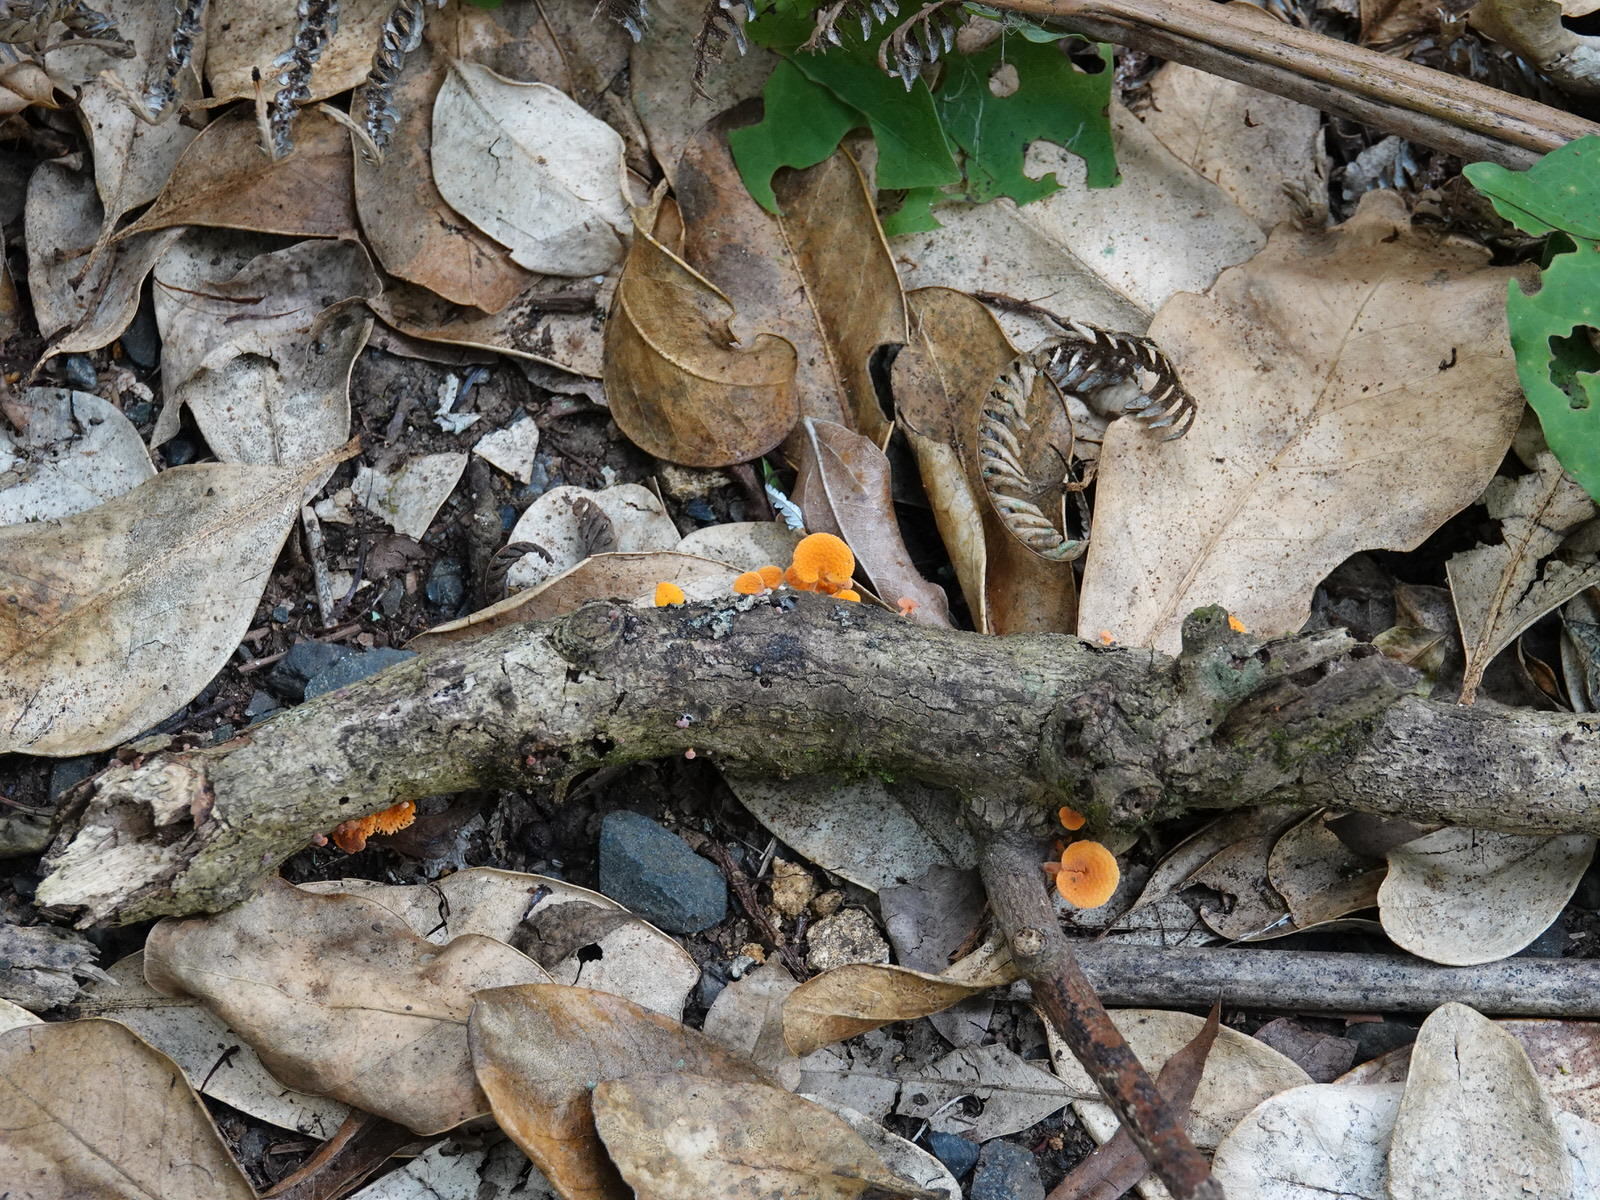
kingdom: Fungi
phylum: Basidiomycota
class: Agaricomycetes
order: Agaricales
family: Mycenaceae
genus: Favolaschia
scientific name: Favolaschia claudopus
